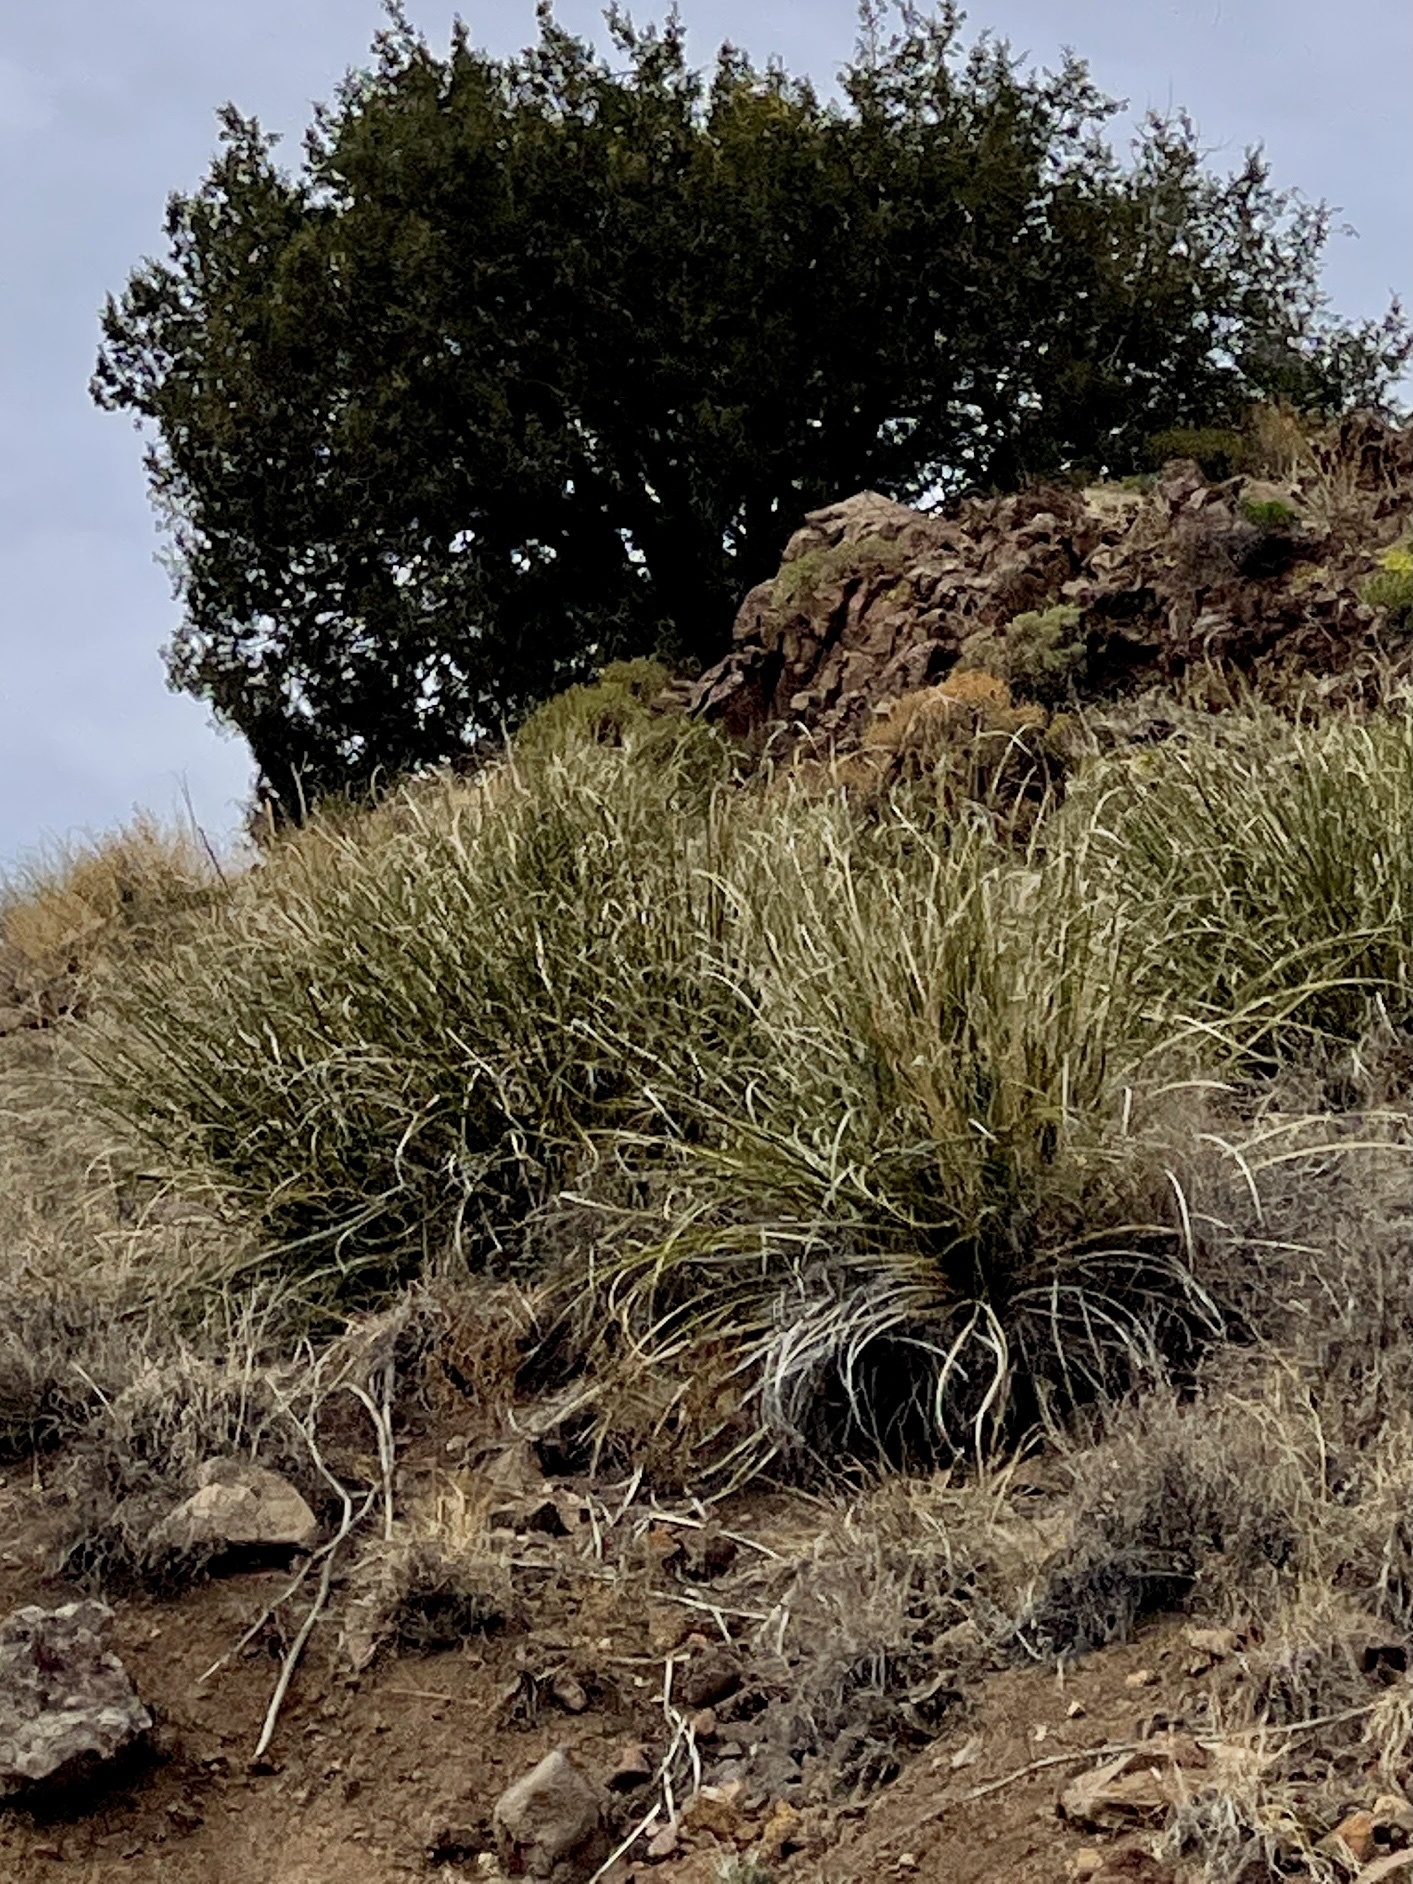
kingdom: Plantae
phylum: Tracheophyta
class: Liliopsida
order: Asparagales
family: Asparagaceae
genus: Nolina
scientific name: Nolina microcarpa
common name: Bear-grass
